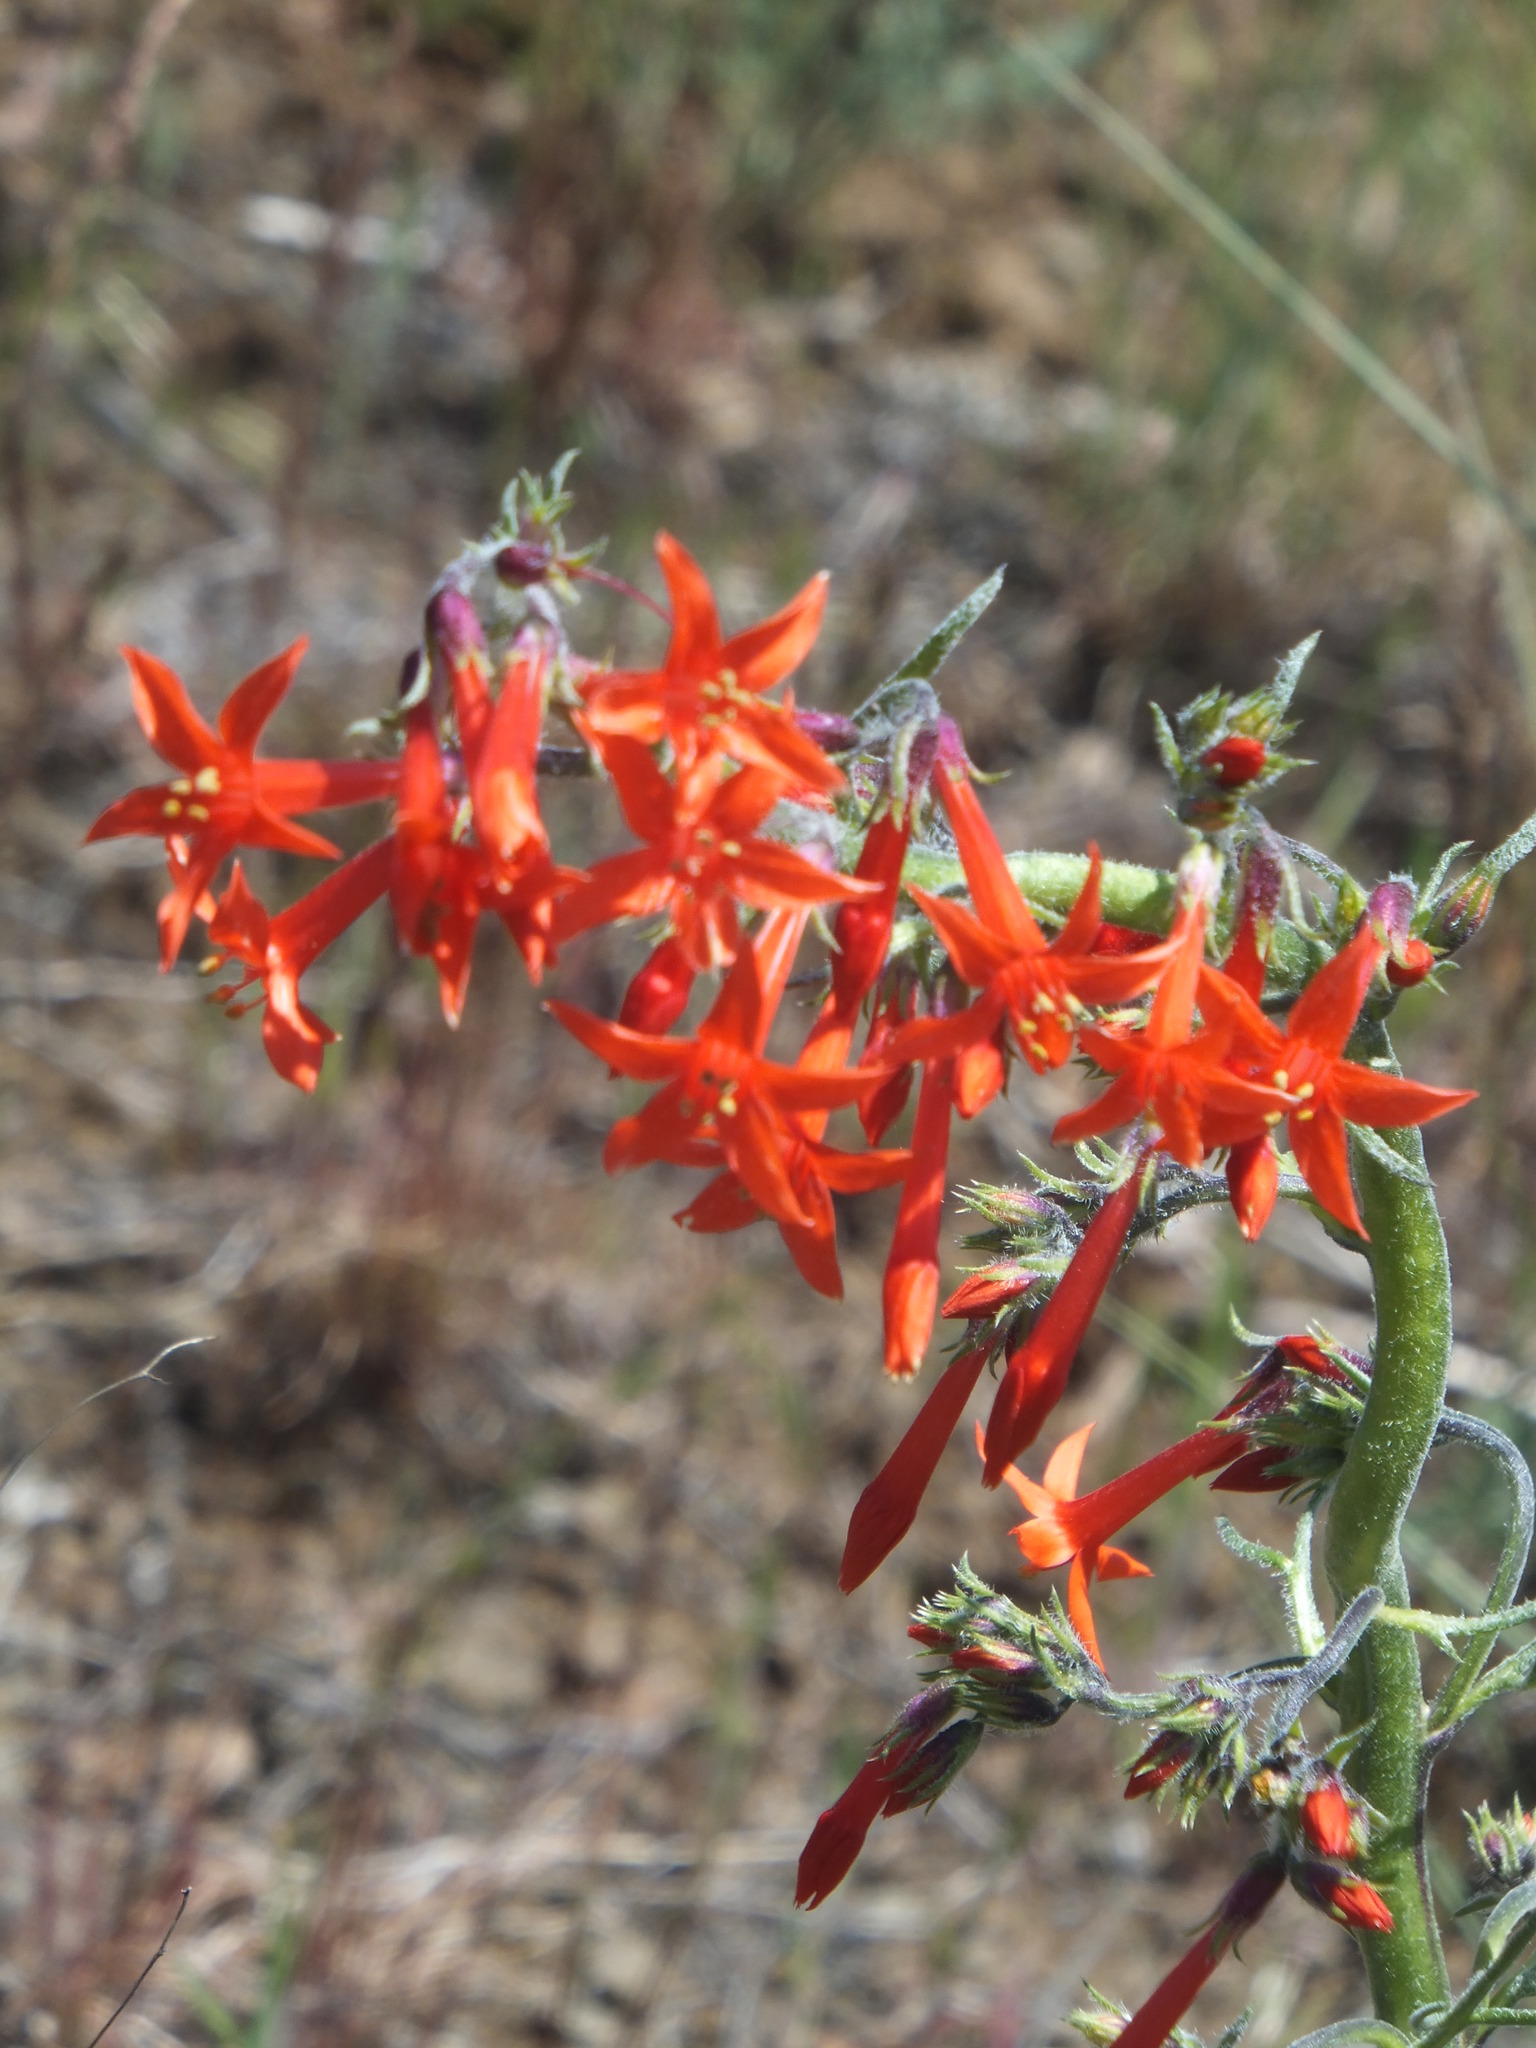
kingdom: Plantae
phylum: Tracheophyta
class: Magnoliopsida
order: Ericales
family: Polemoniaceae
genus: Ipomopsis
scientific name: Ipomopsis aggregata
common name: Scarlet gilia
